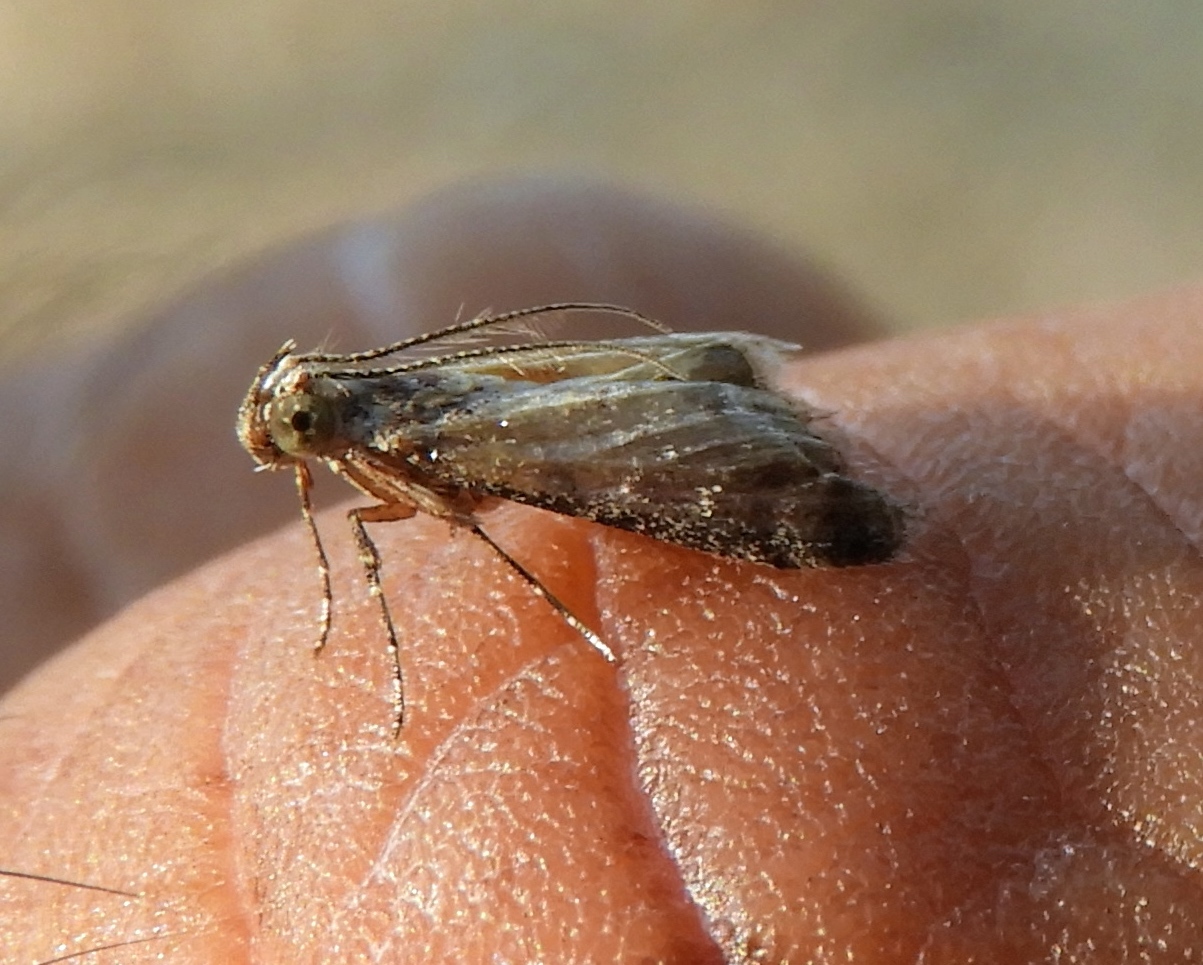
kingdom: Animalia
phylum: Arthropoda
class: Insecta
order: Lepidoptera
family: Pyralidae
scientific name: Pyralidae
